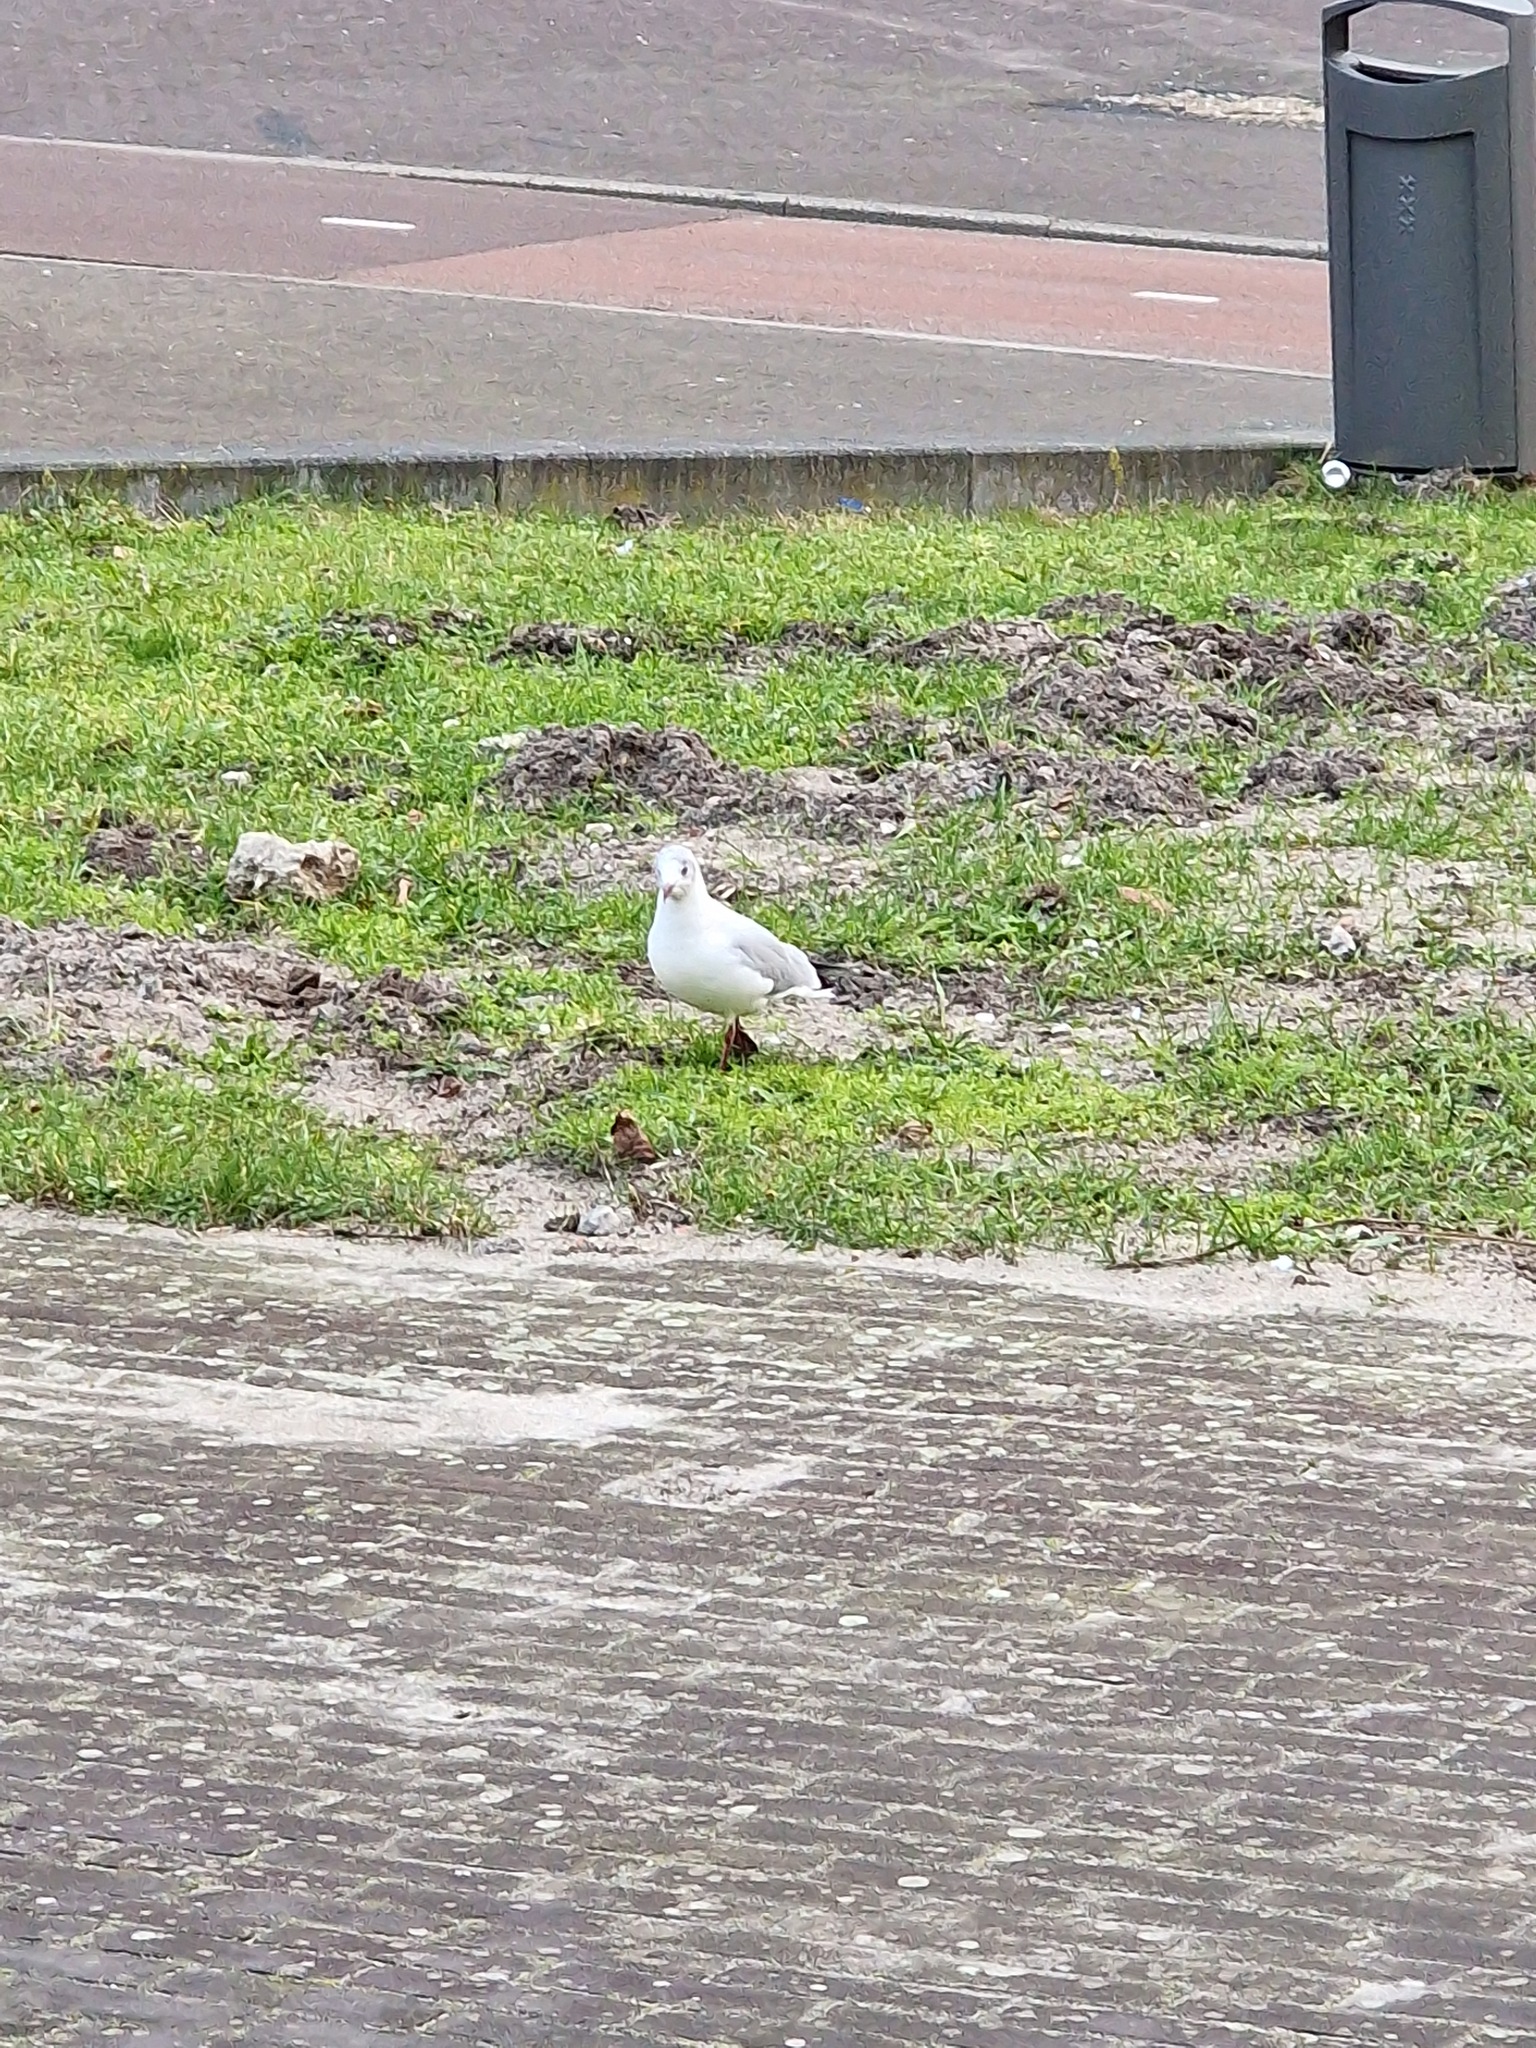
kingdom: Animalia
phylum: Chordata
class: Aves
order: Charadriiformes
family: Laridae
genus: Chroicocephalus
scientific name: Chroicocephalus ridibundus
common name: Black-headed gull
